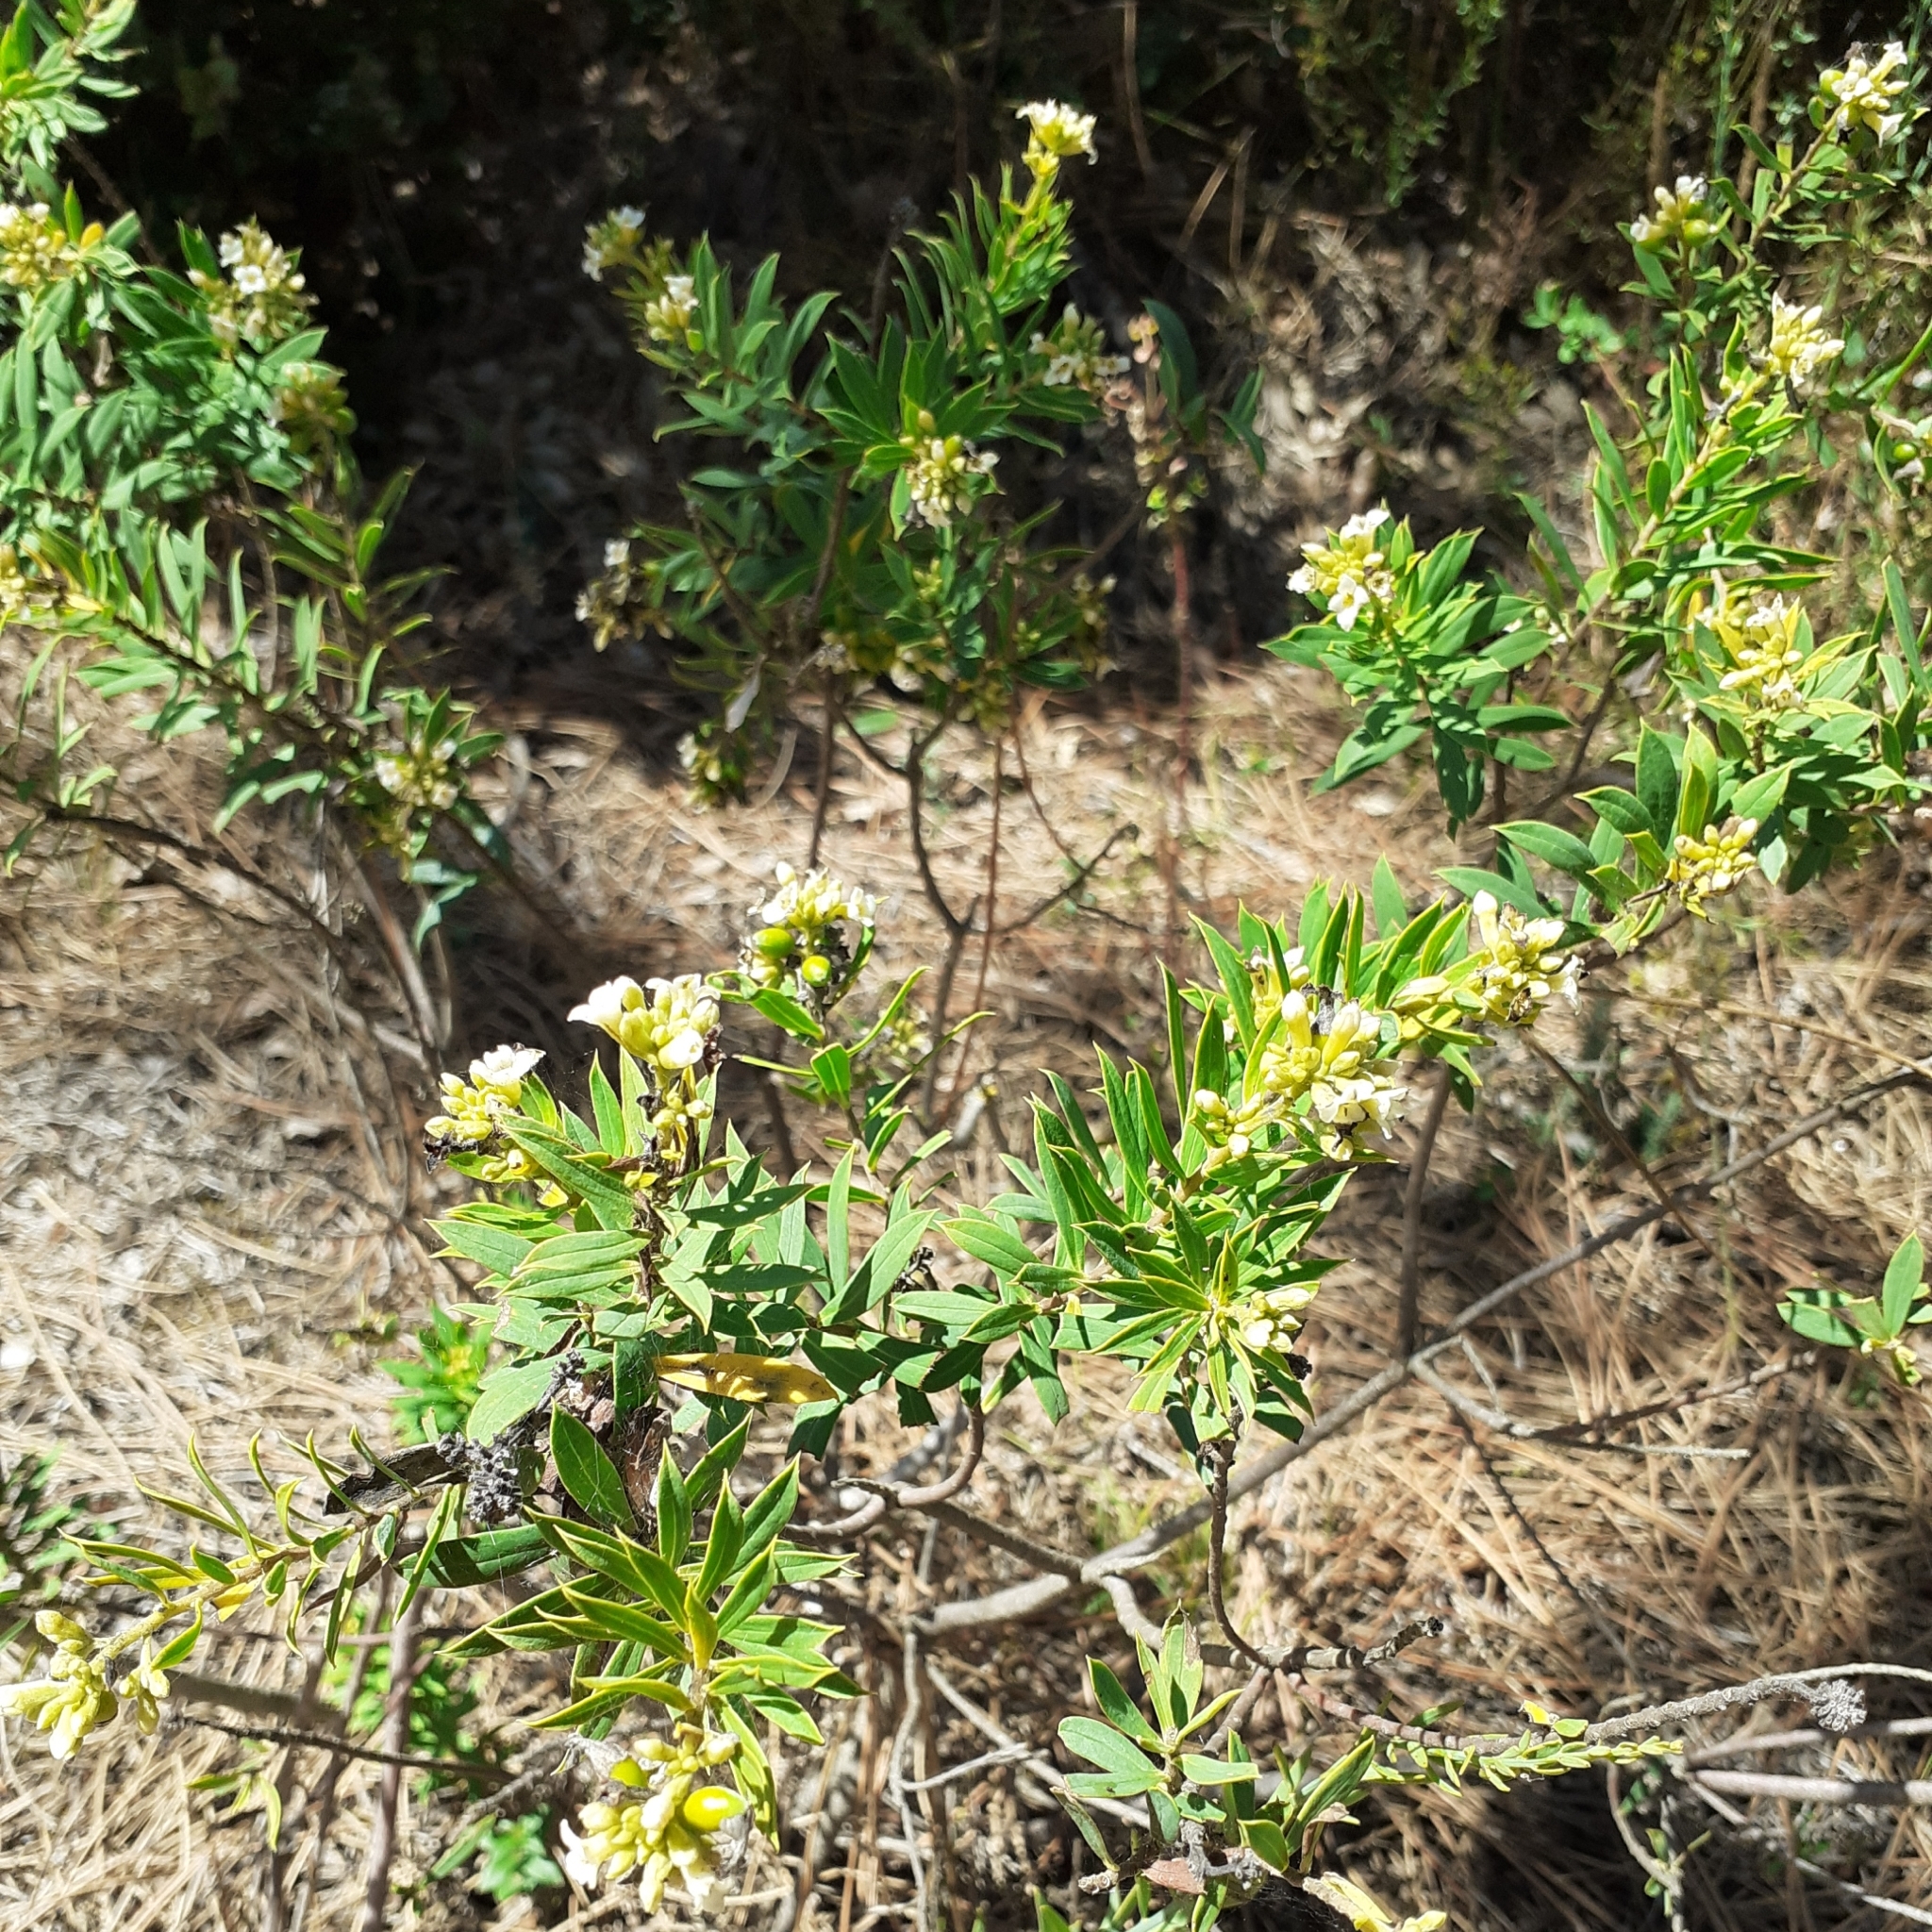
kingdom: Plantae
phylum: Tracheophyta
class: Magnoliopsida
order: Malvales
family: Thymelaeaceae
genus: Daphne
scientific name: Daphne gnidium
